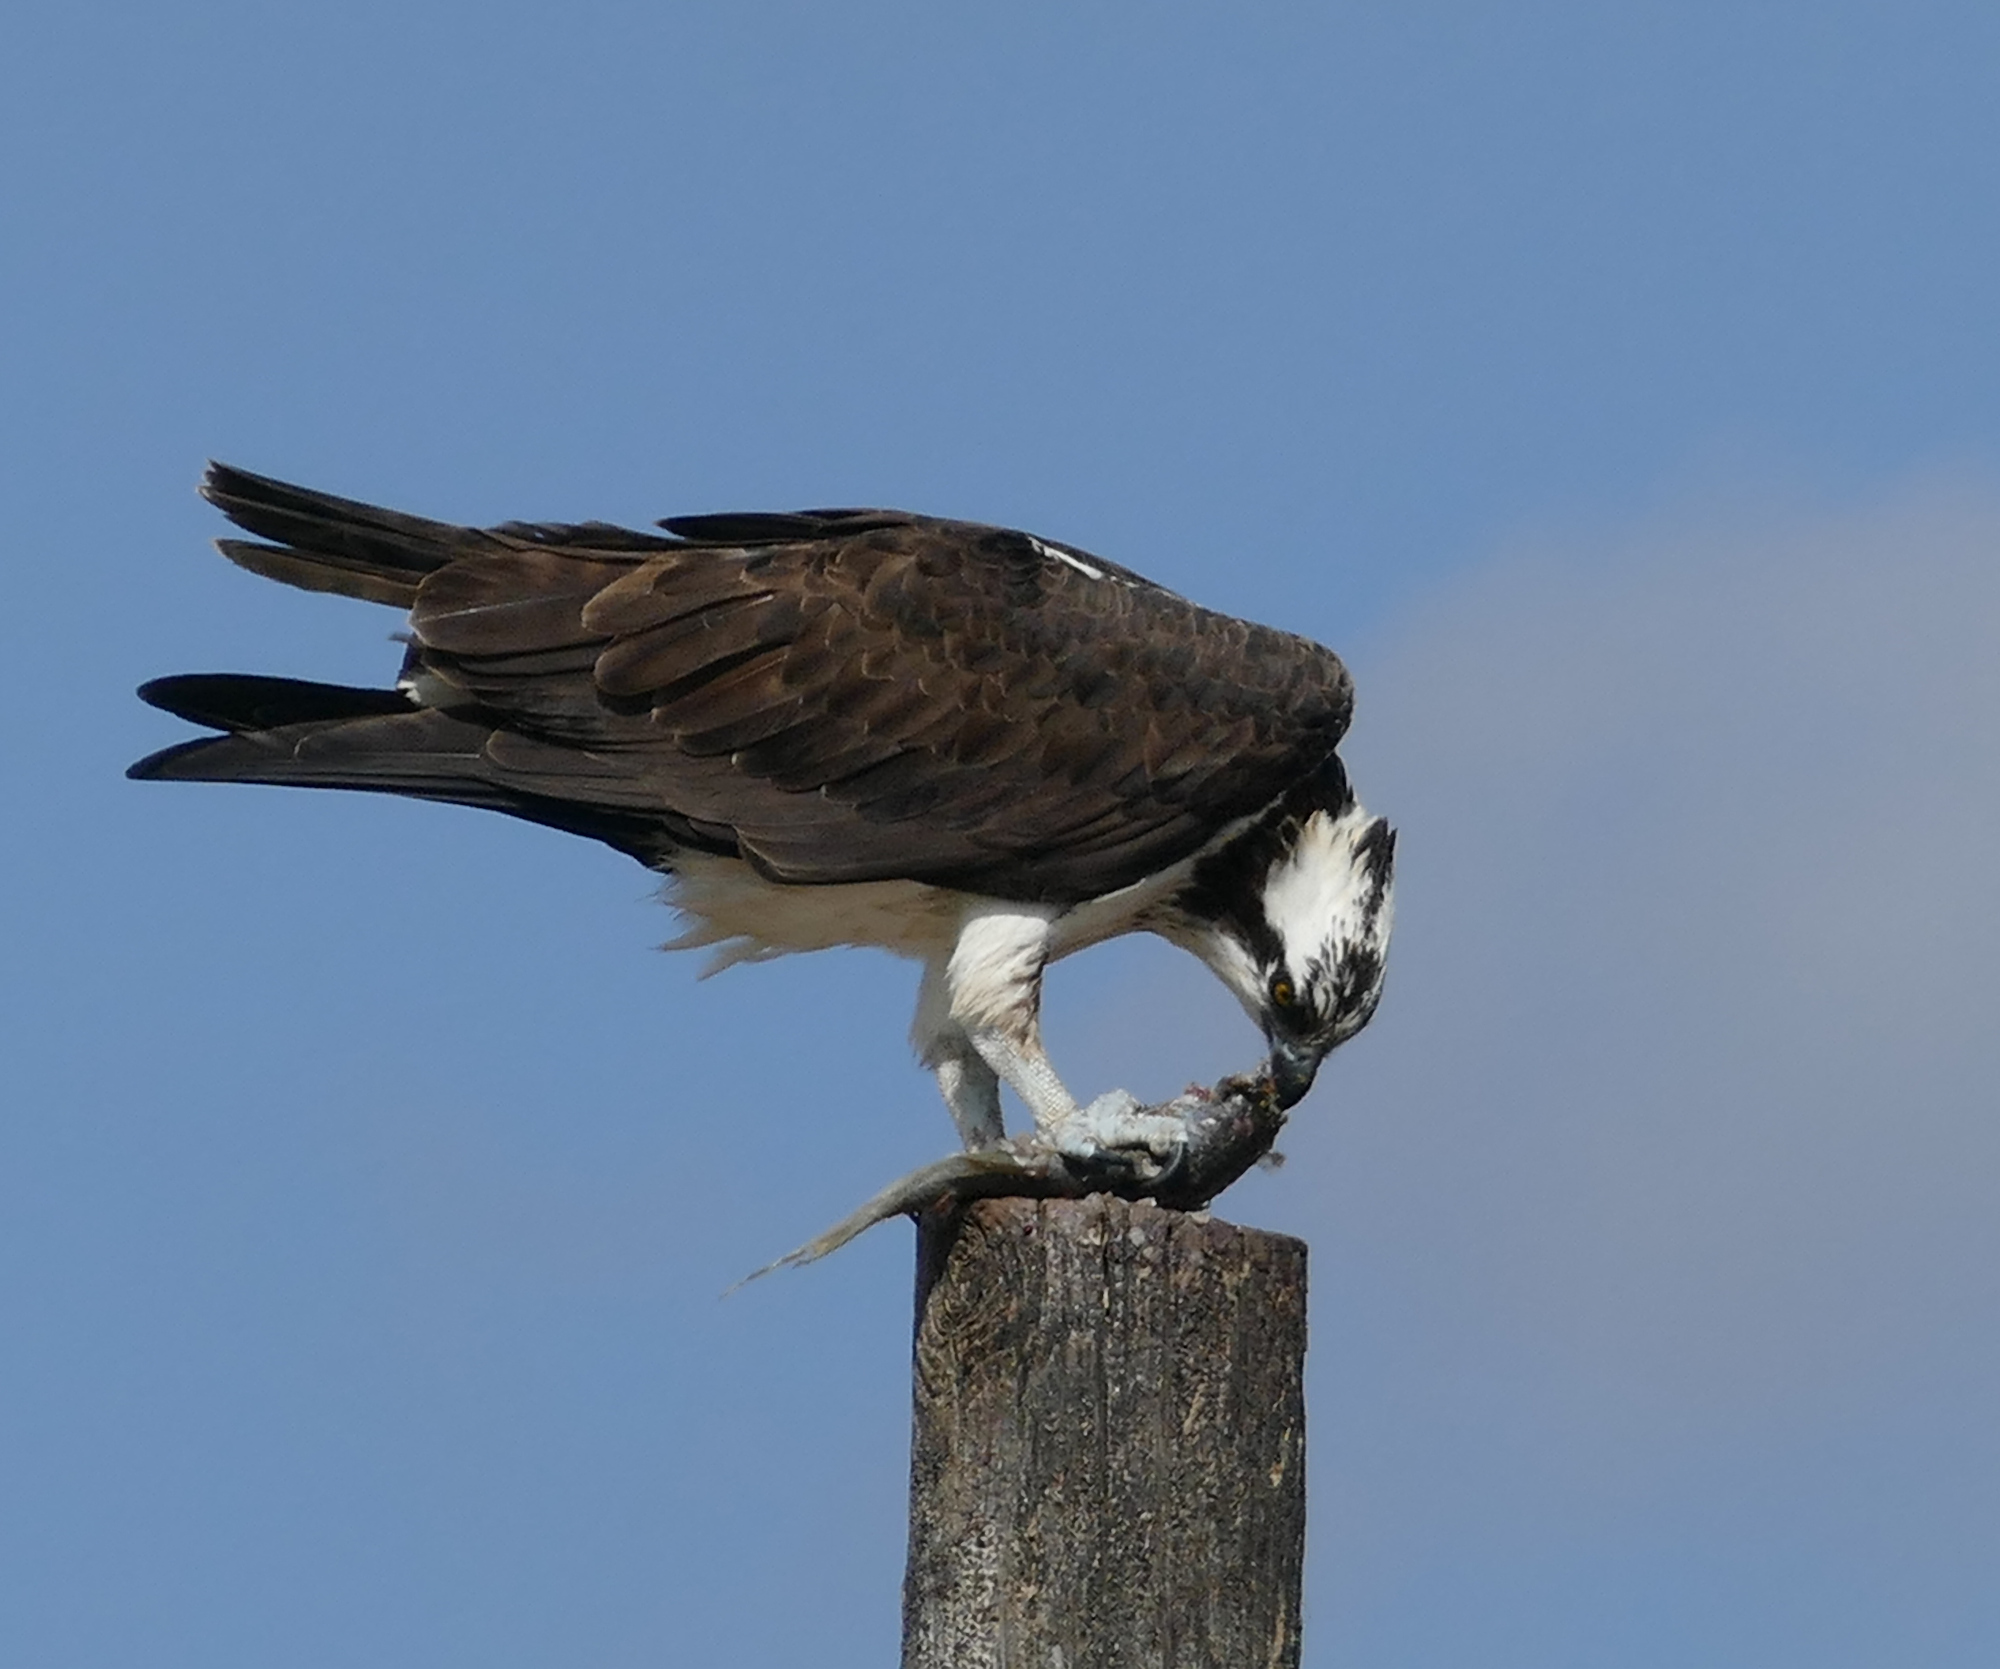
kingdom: Animalia
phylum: Chordata
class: Aves
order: Accipitriformes
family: Pandionidae
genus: Pandion
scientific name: Pandion haliaetus
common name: Osprey
